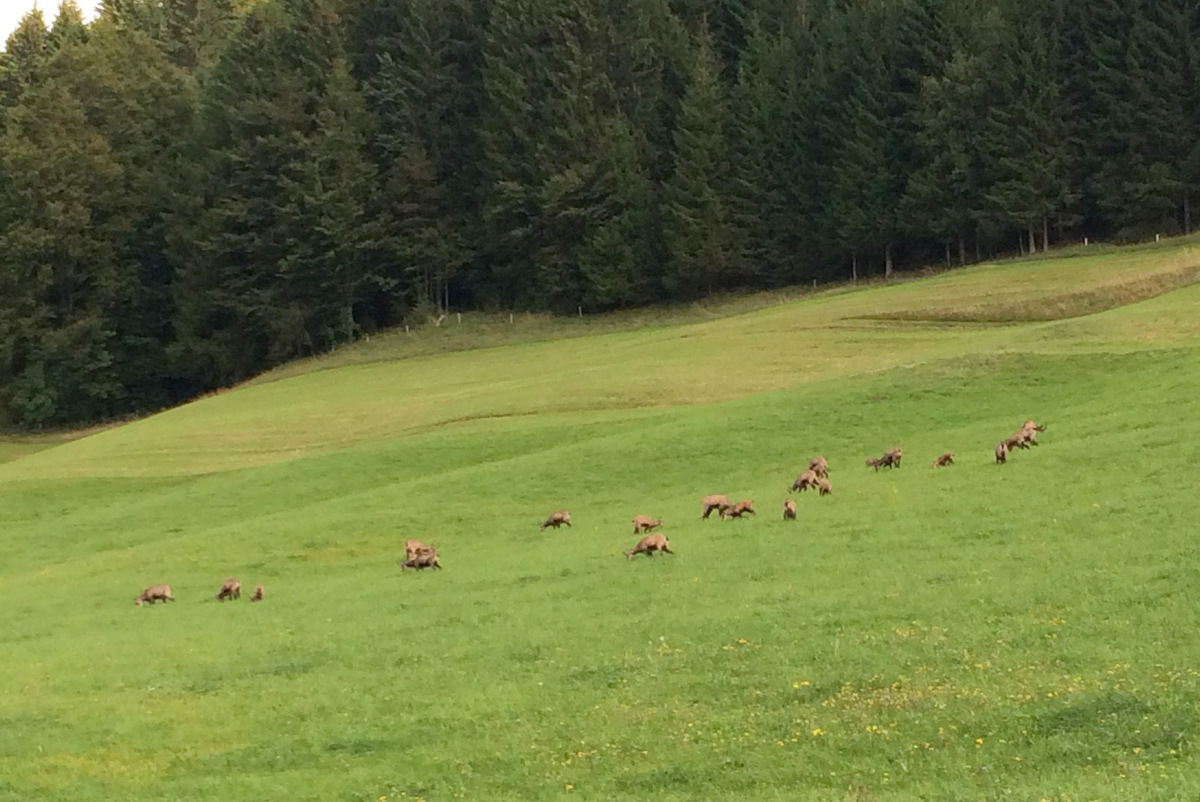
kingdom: Animalia
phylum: Chordata
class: Mammalia
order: Artiodactyla
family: Bovidae
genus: Rupicapra
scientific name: Rupicapra rupicapra
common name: Chamois
